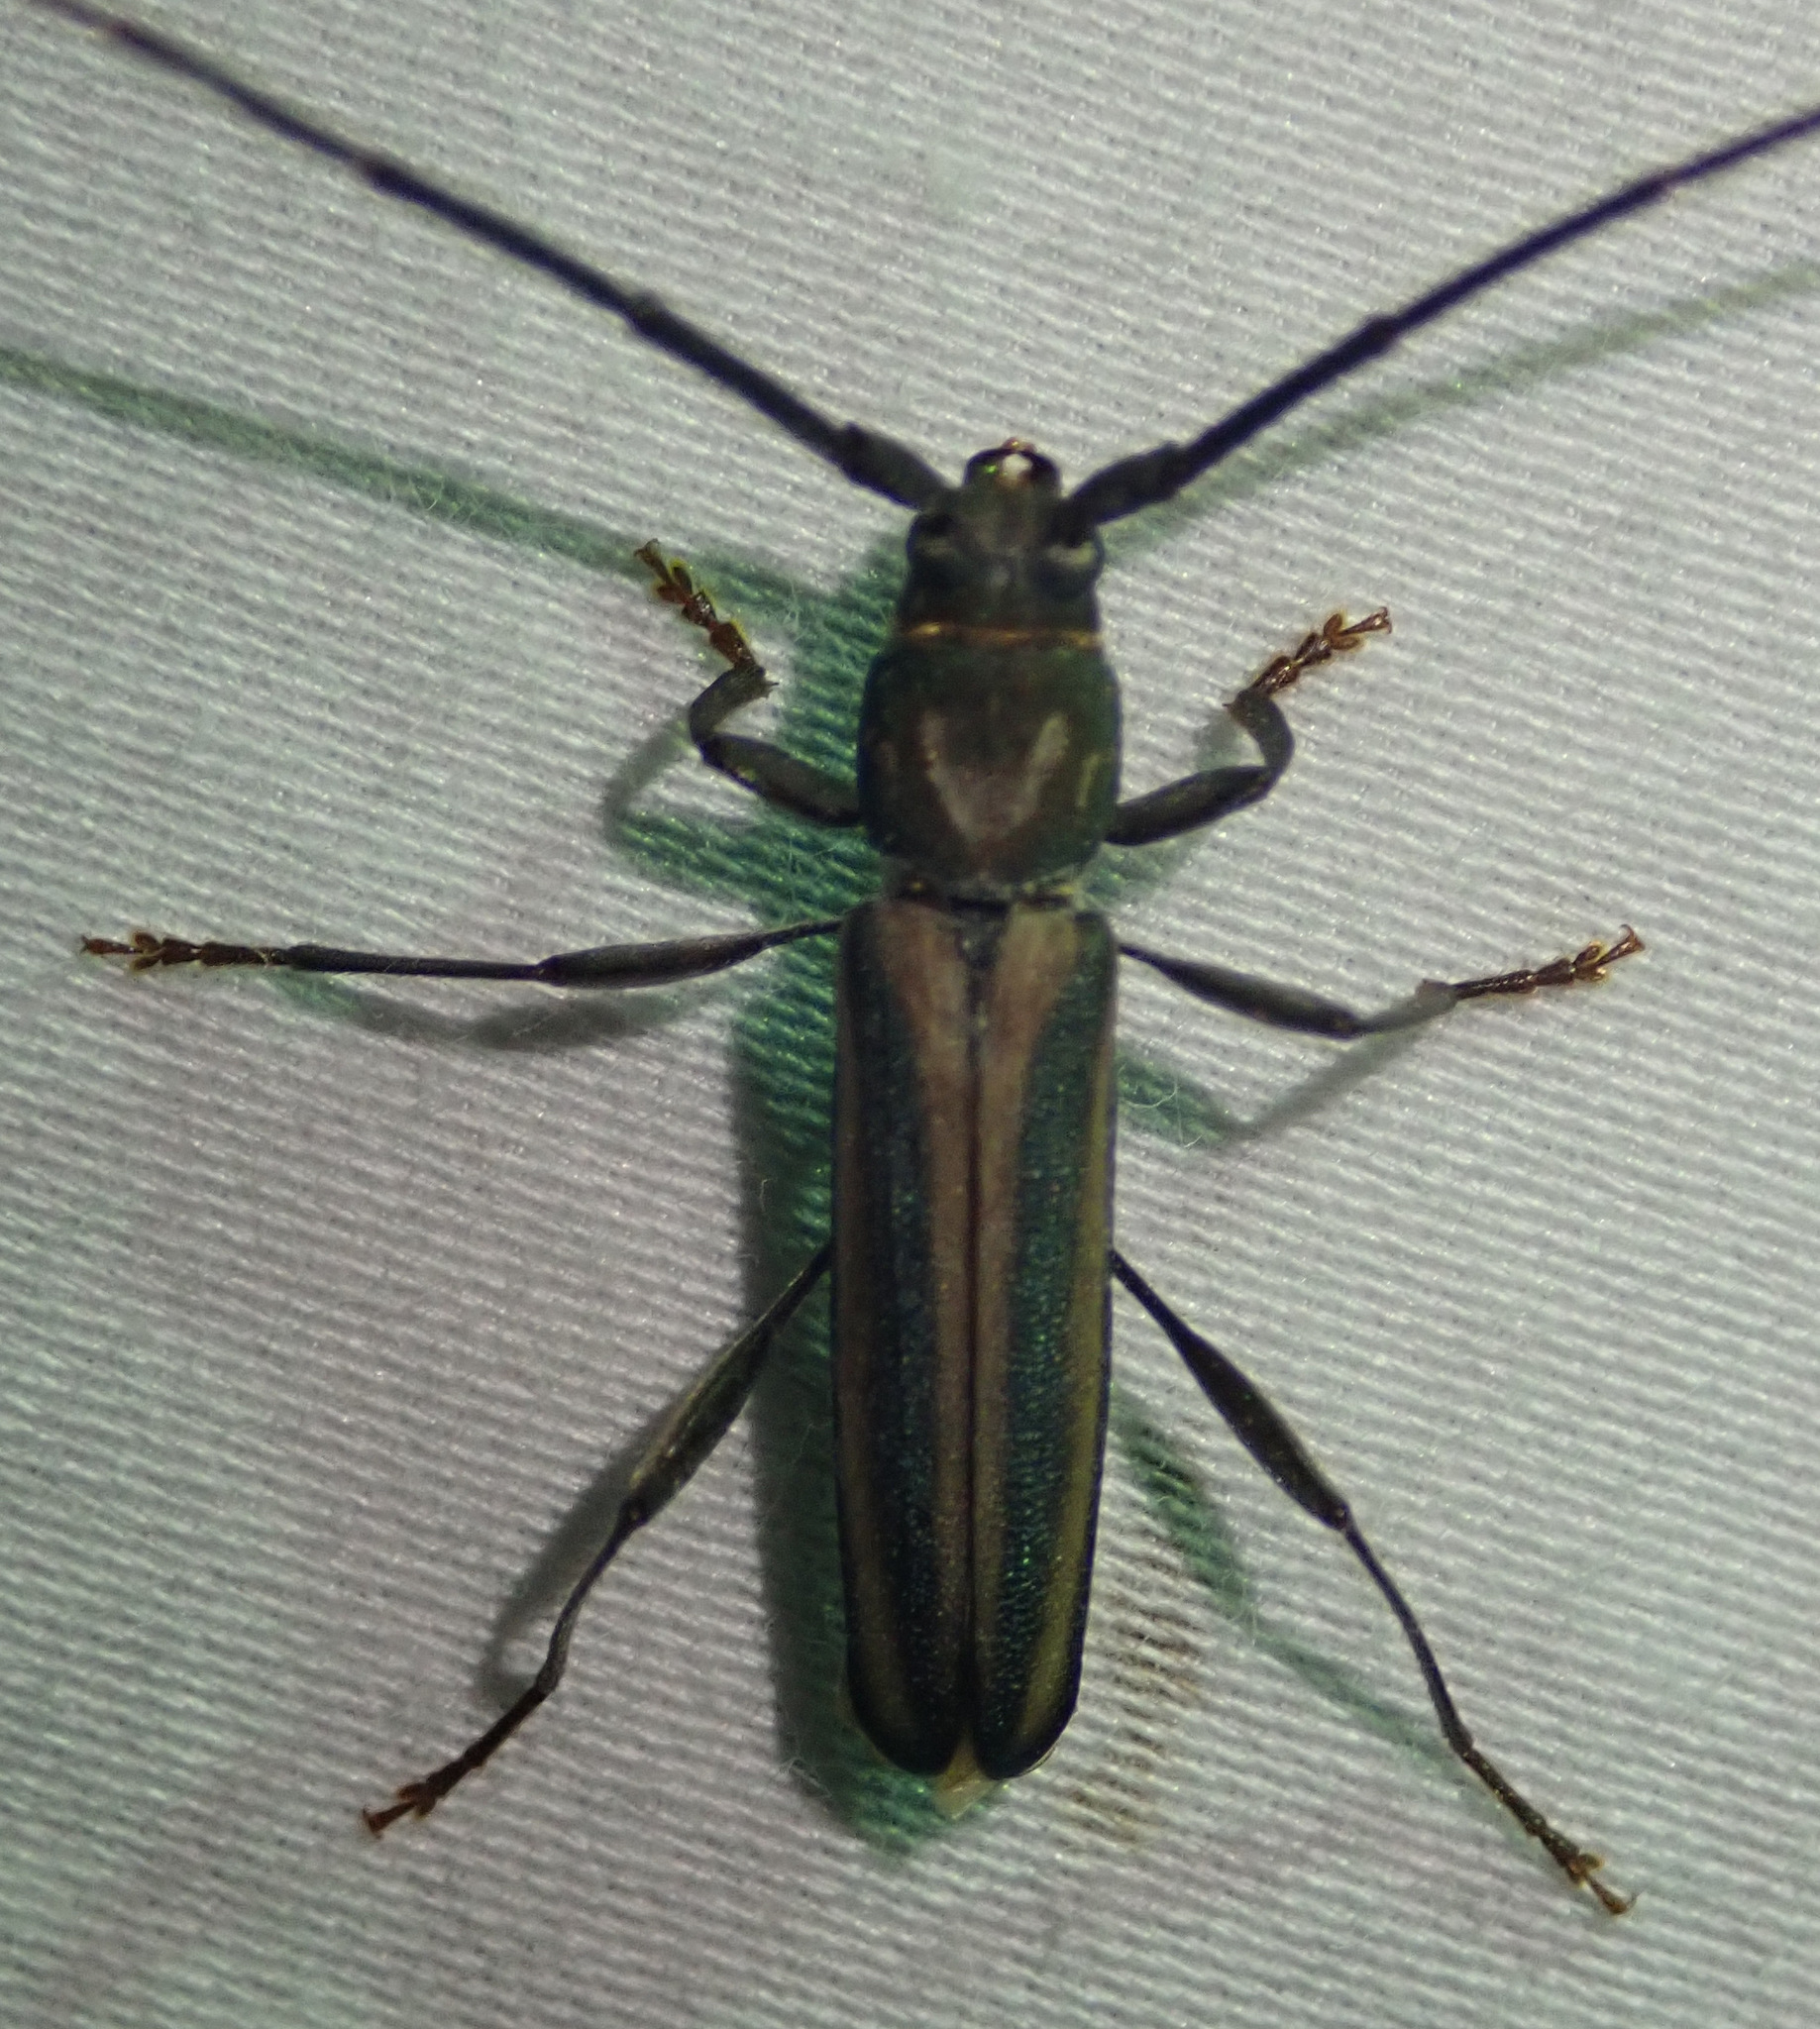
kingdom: Animalia
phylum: Arthropoda
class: Insecta
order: Coleoptera
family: Cerambycidae
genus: Xystrocera
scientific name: Xystrocera dispar
